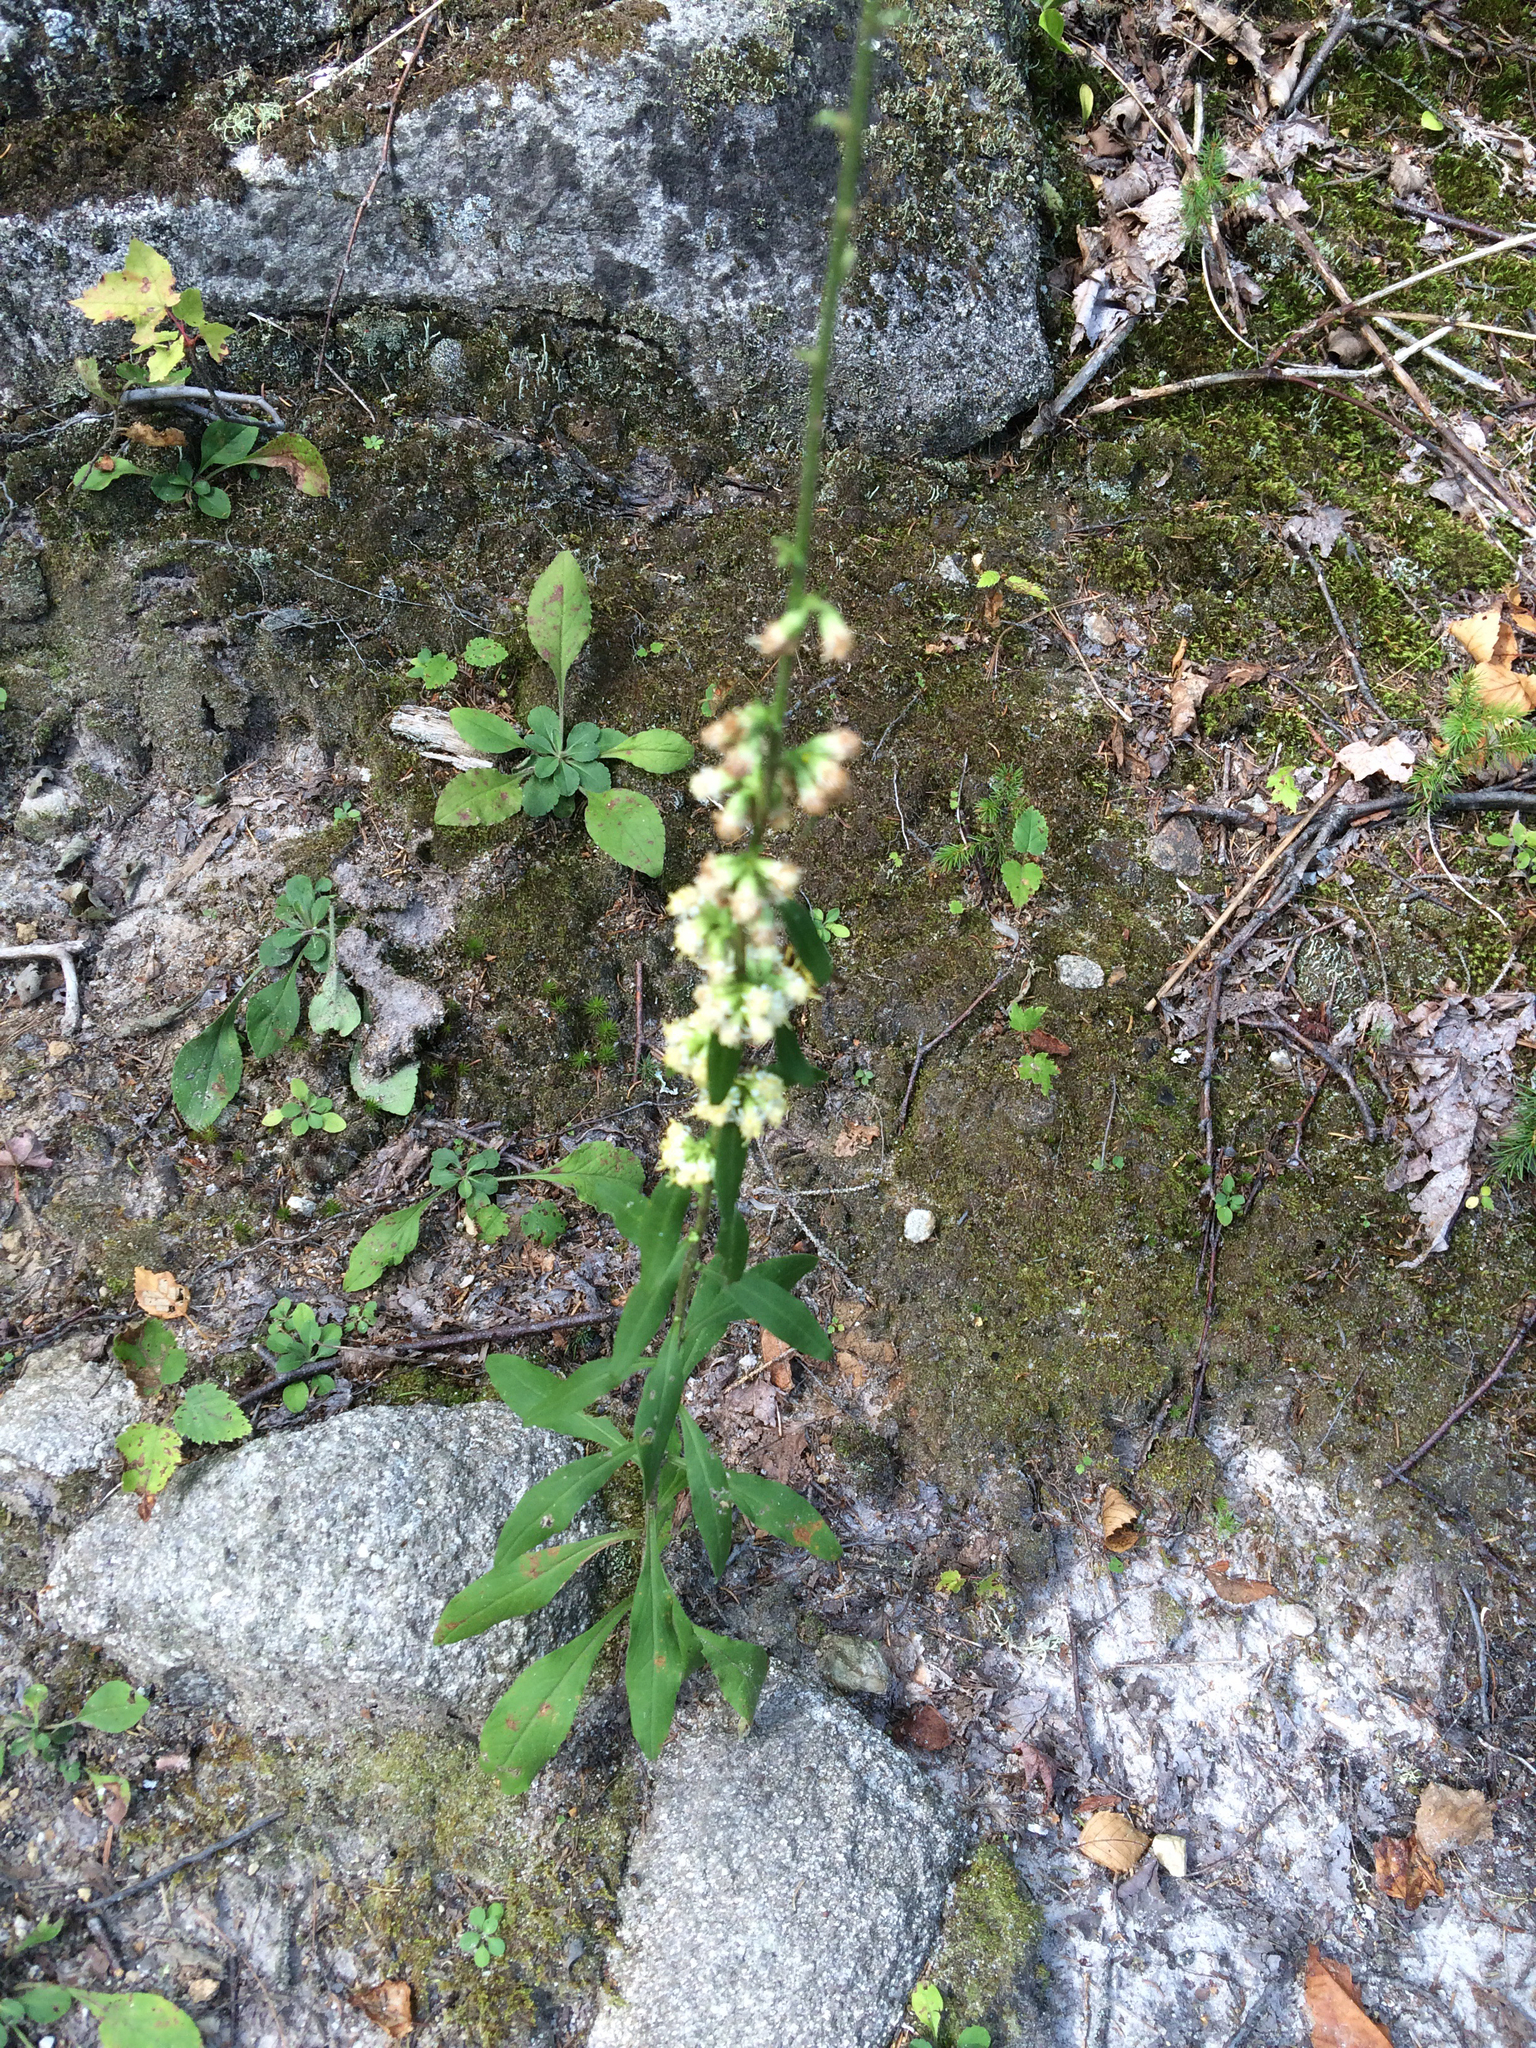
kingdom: Plantae
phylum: Tracheophyta
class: Magnoliopsida
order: Asterales
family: Asteraceae
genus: Solidago
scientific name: Solidago bicolor
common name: Silverrod
